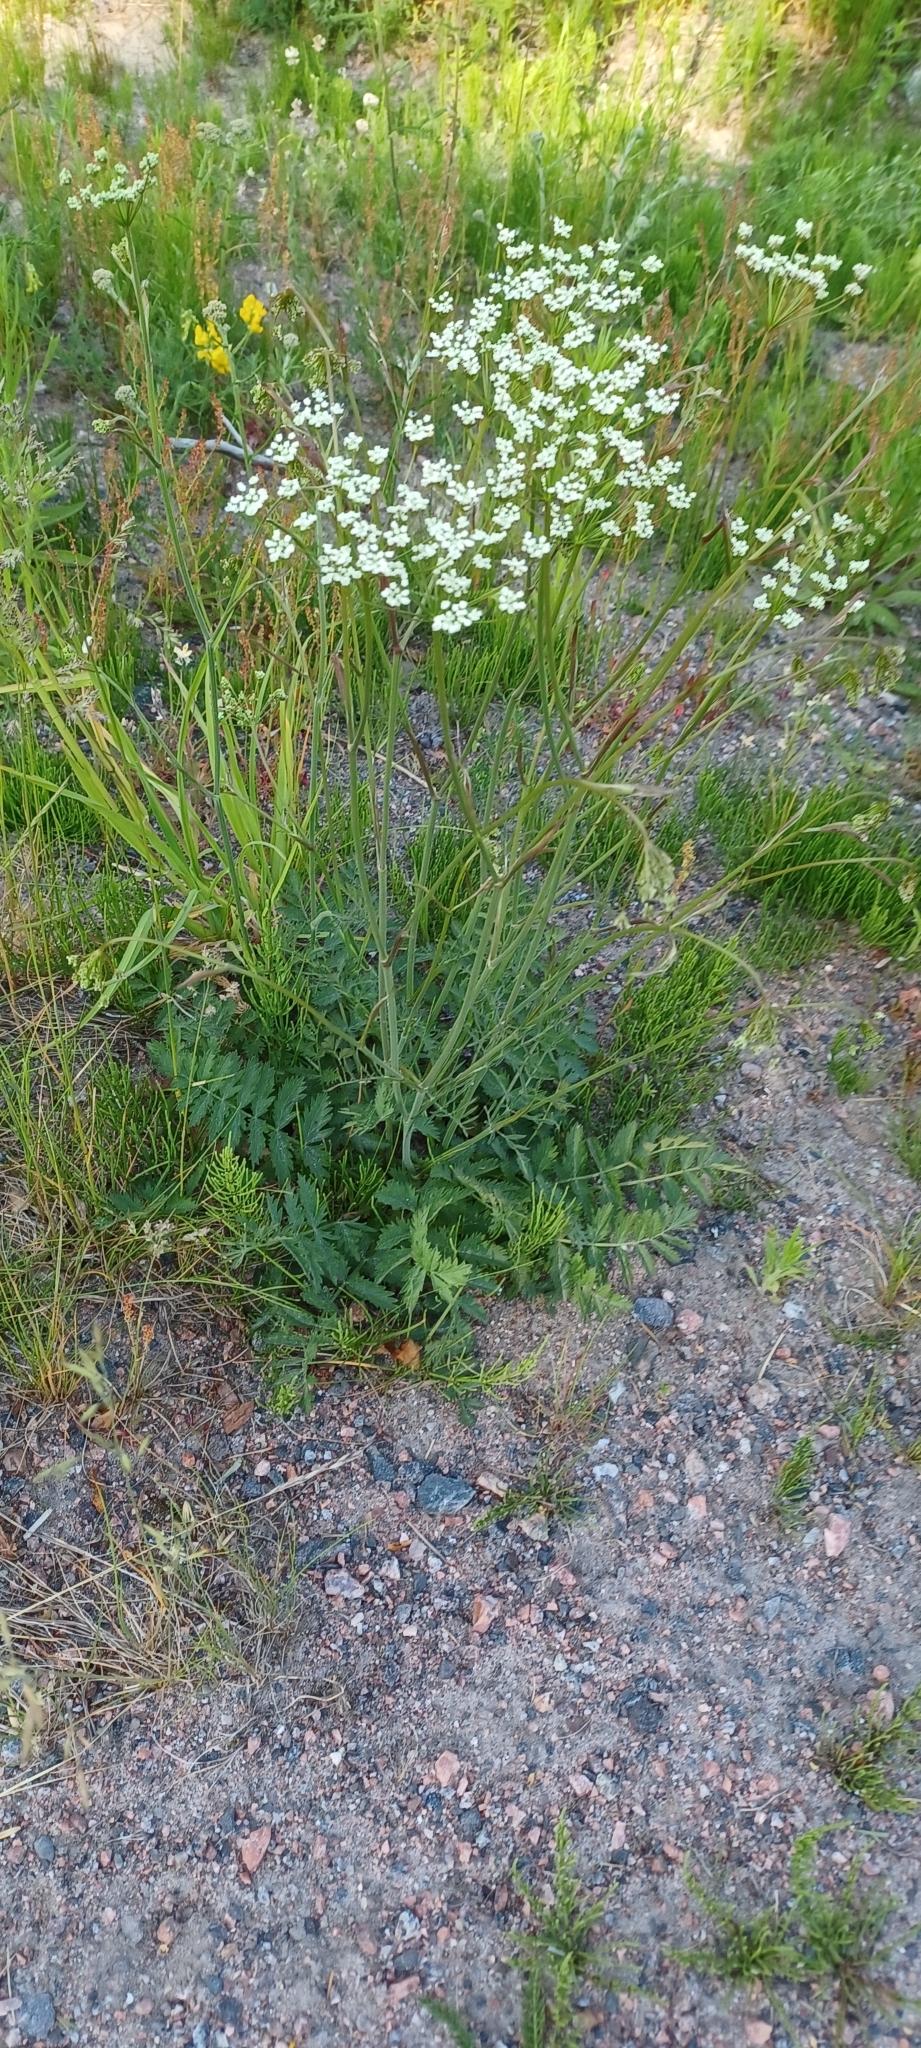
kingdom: Plantae
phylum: Tracheophyta
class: Magnoliopsida
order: Apiales
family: Apiaceae
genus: Pimpinella
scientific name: Pimpinella saxifraga
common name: Burnet-saxifrage
